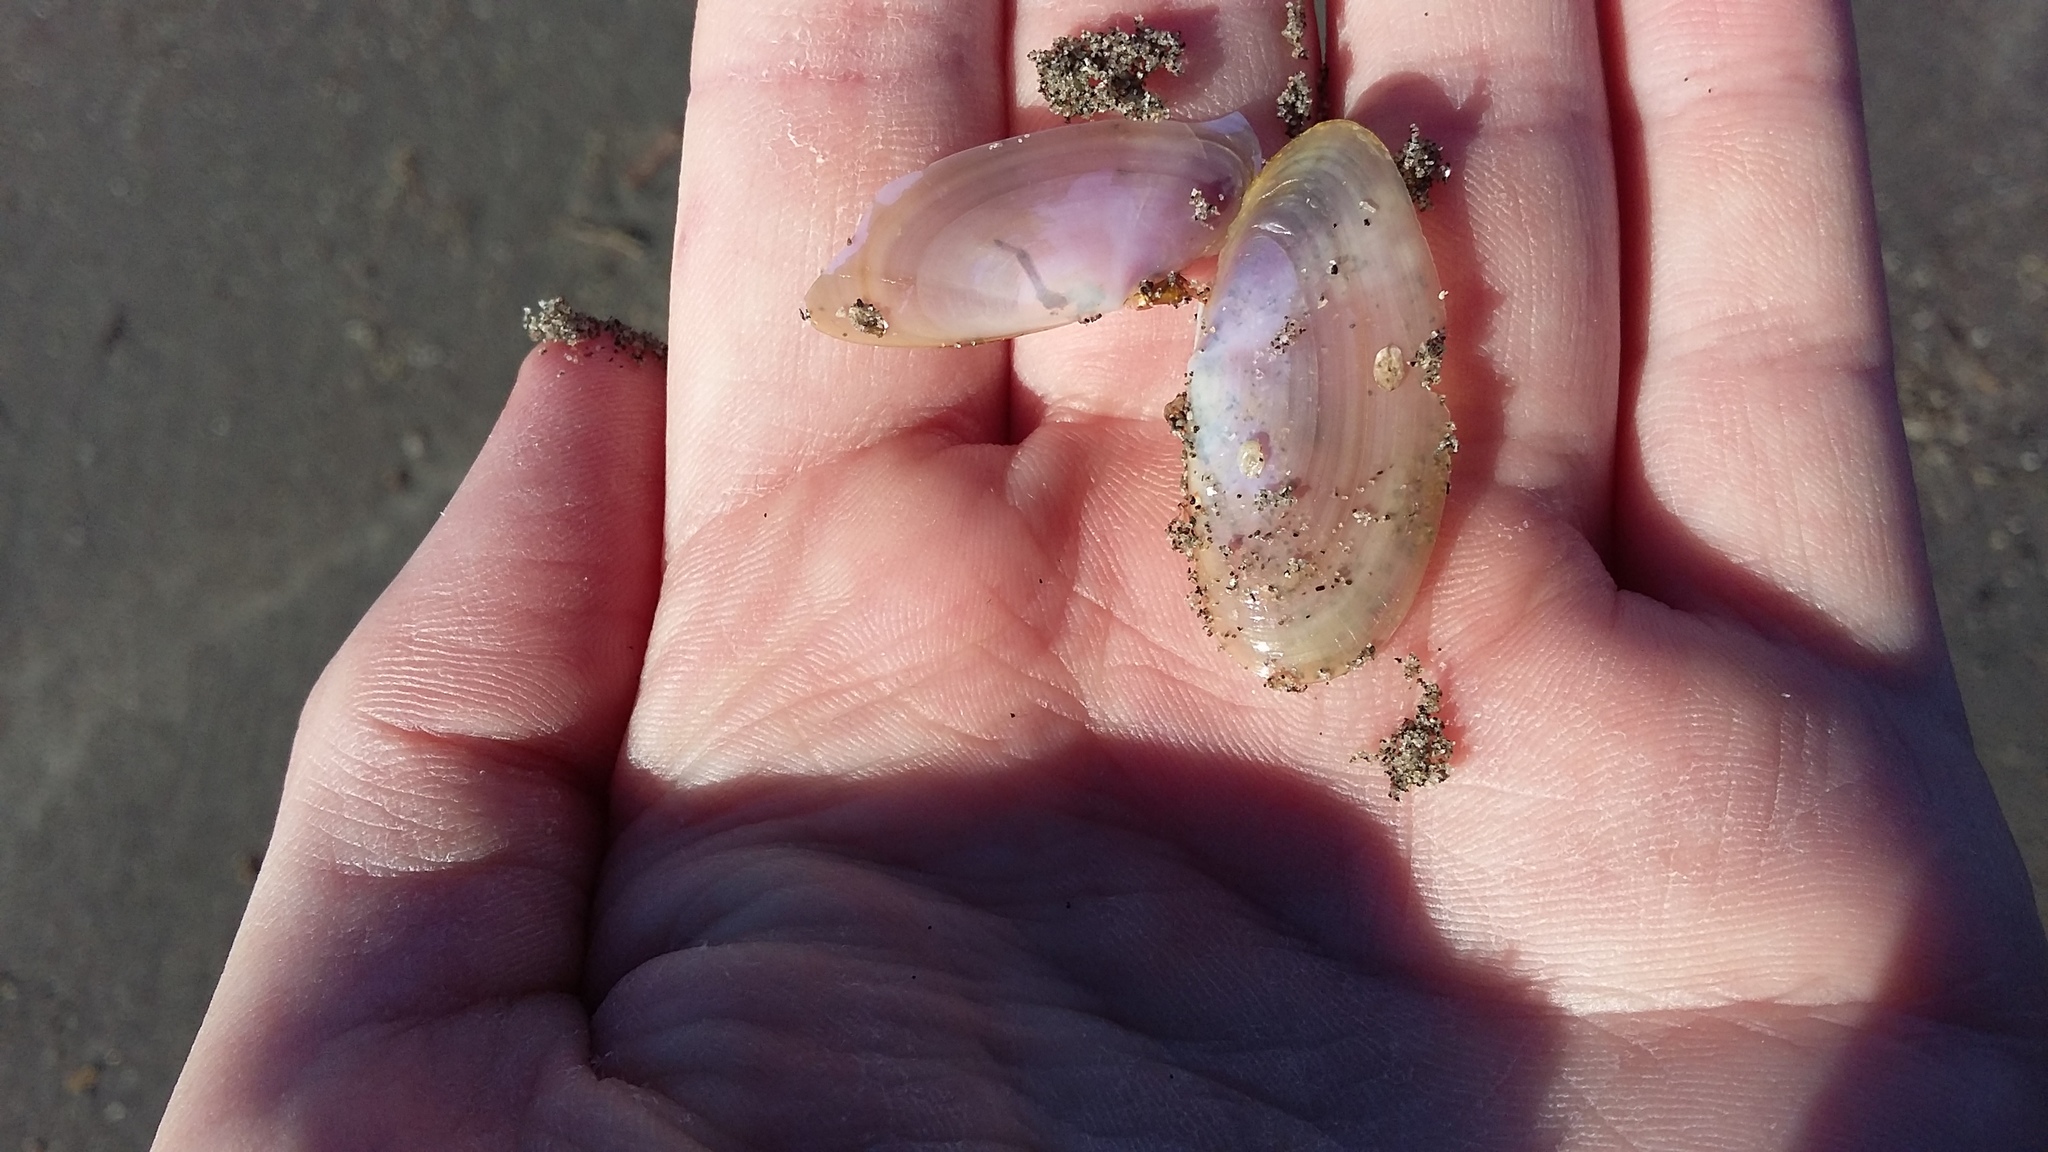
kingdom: Animalia
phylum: Mollusca
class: Bivalvia
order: Cardiida
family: Psammobiidae
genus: Hiatula
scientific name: Hiatula nitida
